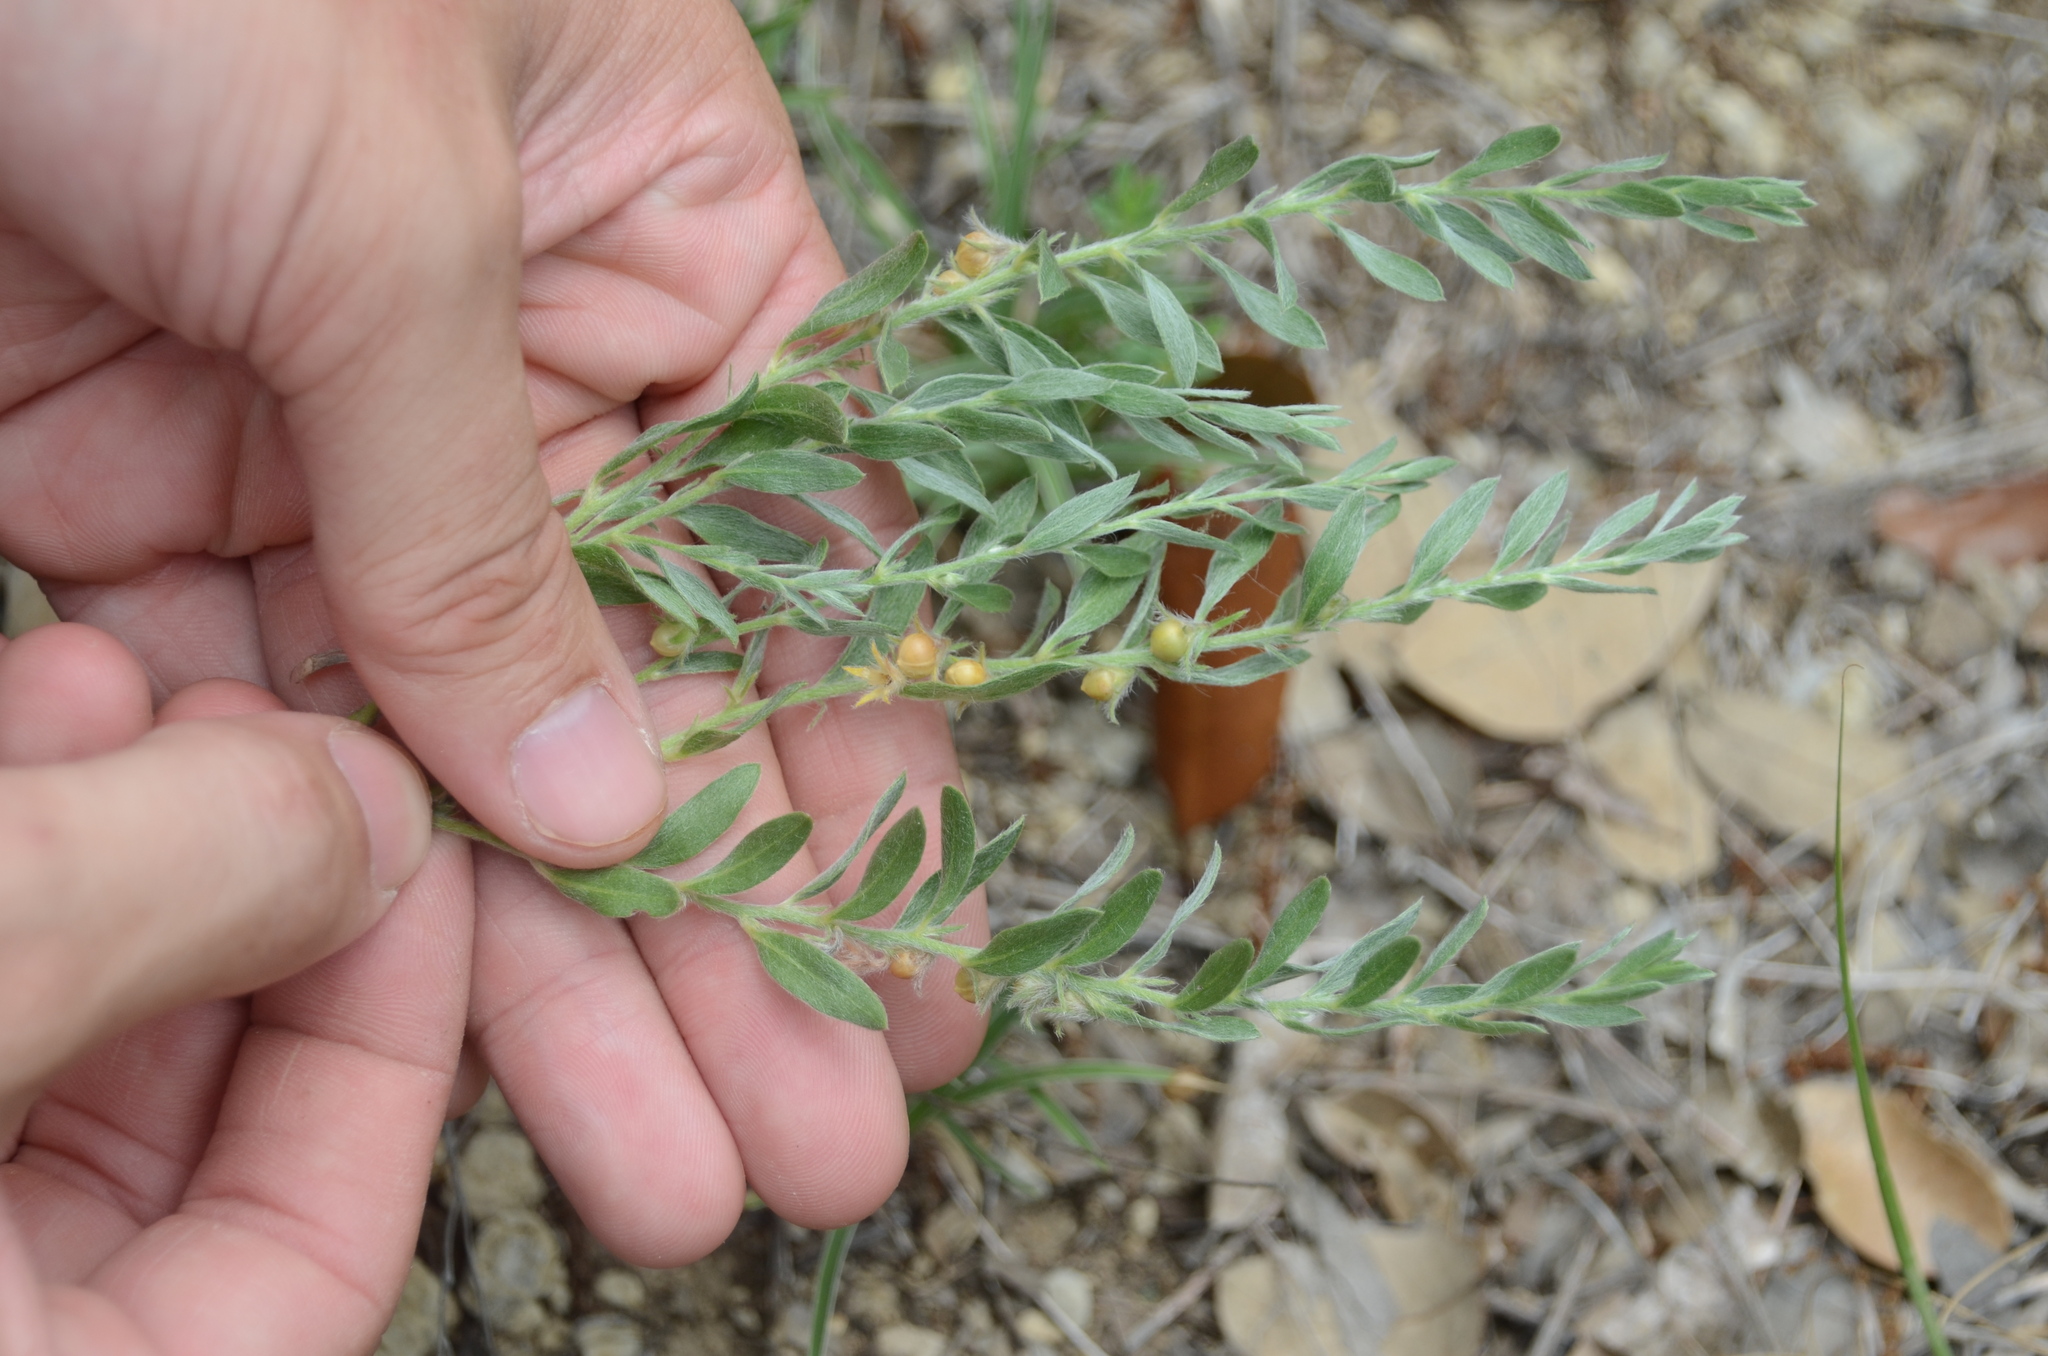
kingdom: Plantae
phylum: Tracheophyta
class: Magnoliopsida
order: Solanales
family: Convolvulaceae
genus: Evolvulus
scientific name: Evolvulus nuttallianus
